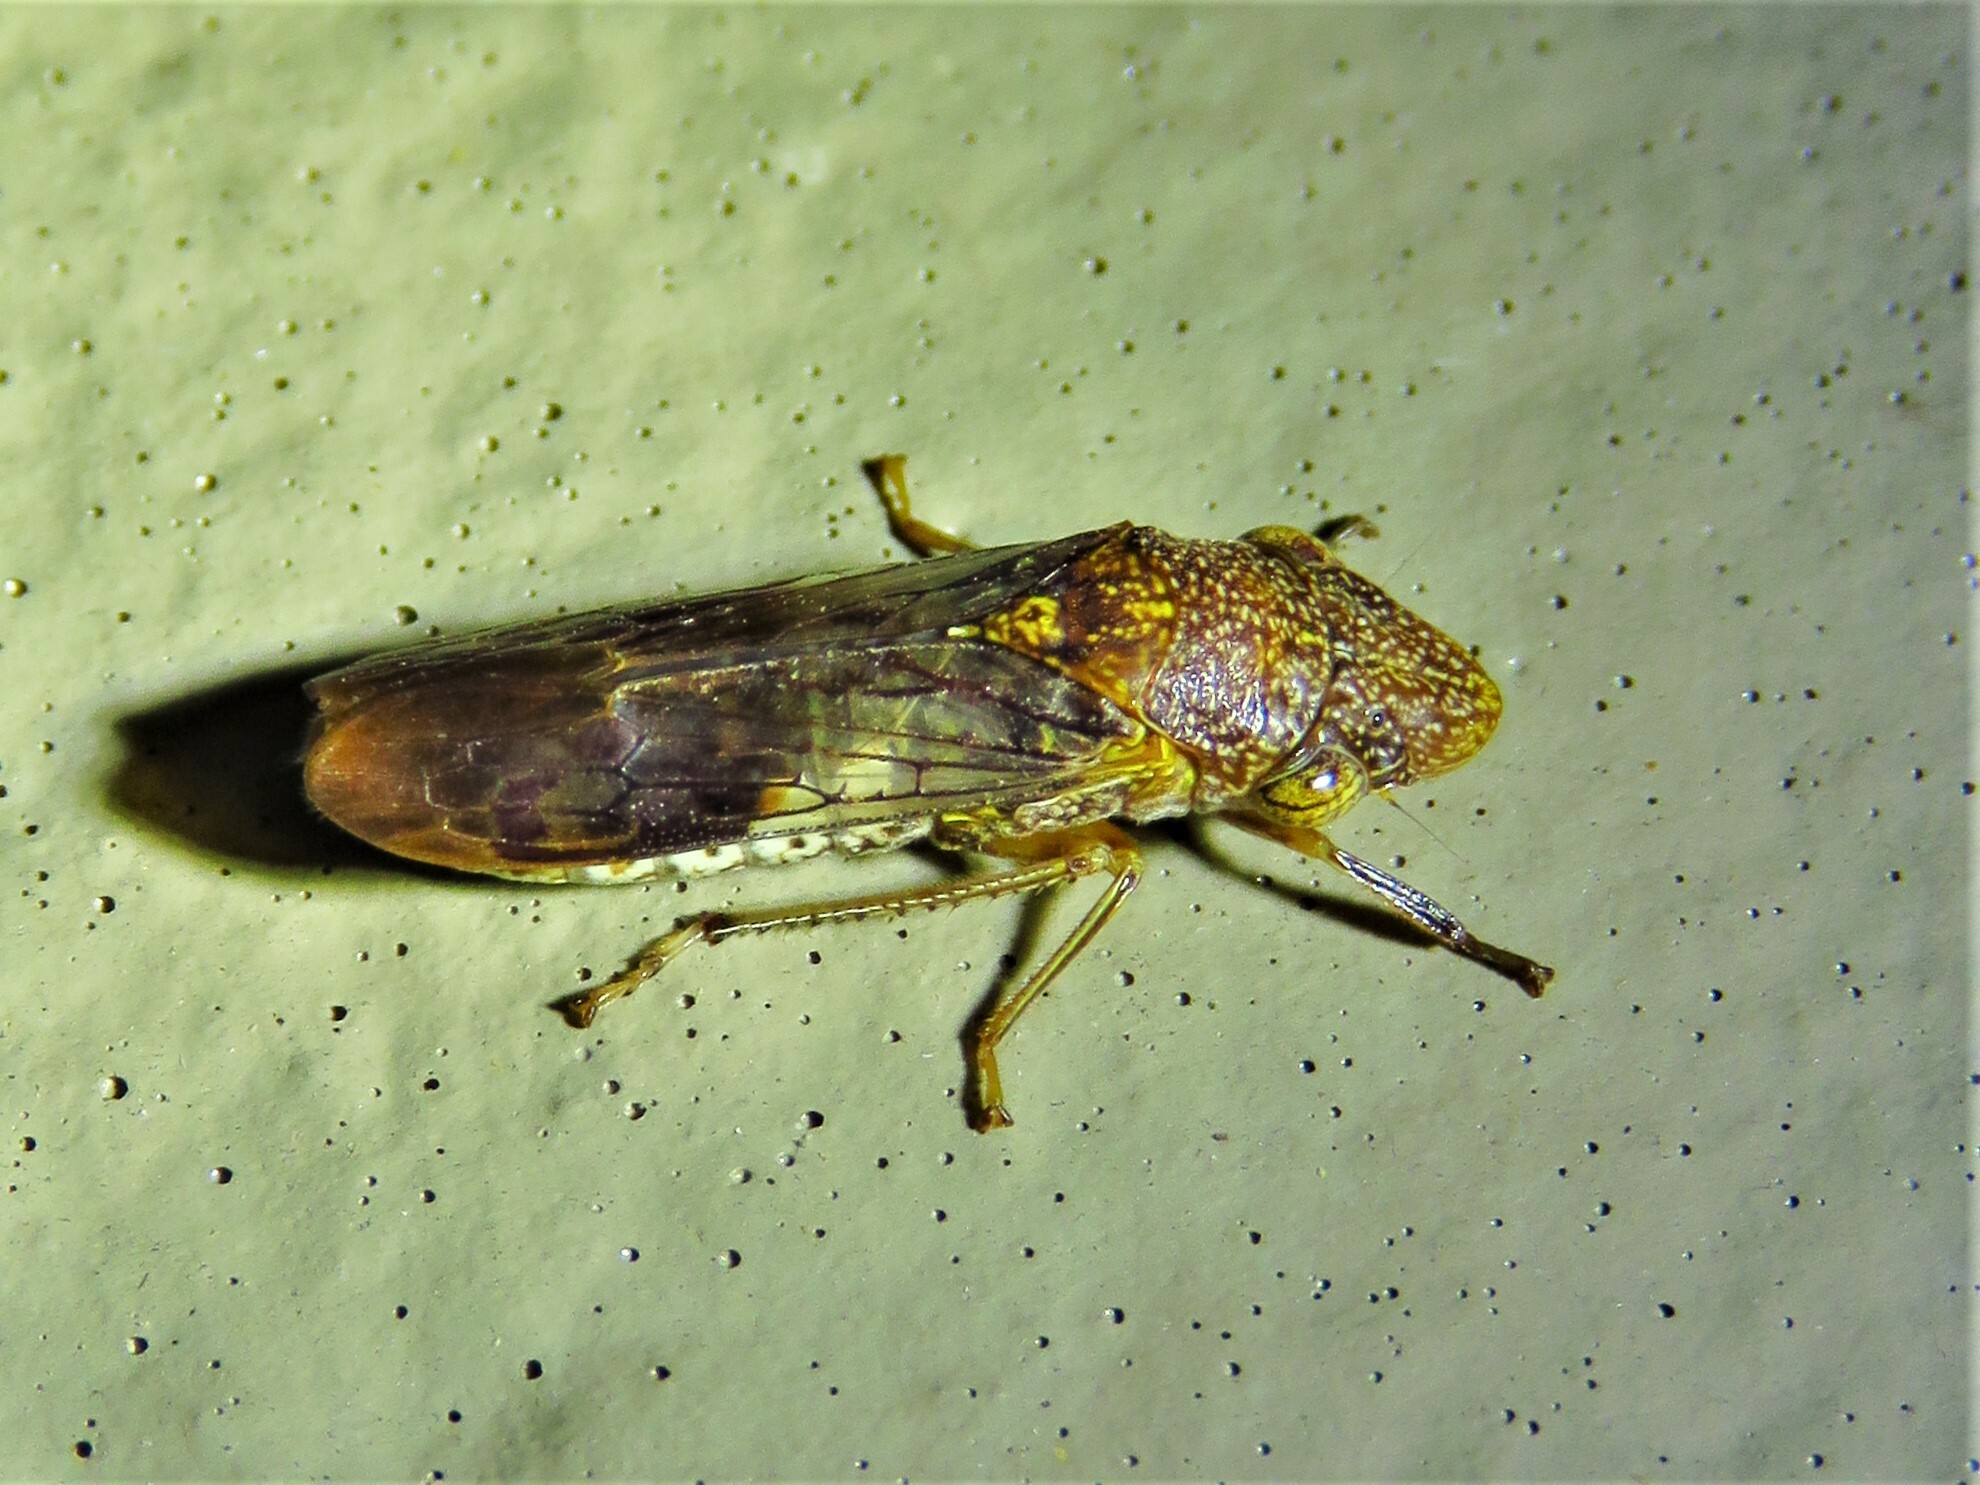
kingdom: Animalia
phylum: Arthropoda
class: Insecta
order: Hemiptera
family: Cicadellidae
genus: Homalodisca
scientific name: Homalodisca vitripennis
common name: Glassy-winged sharpshooter
